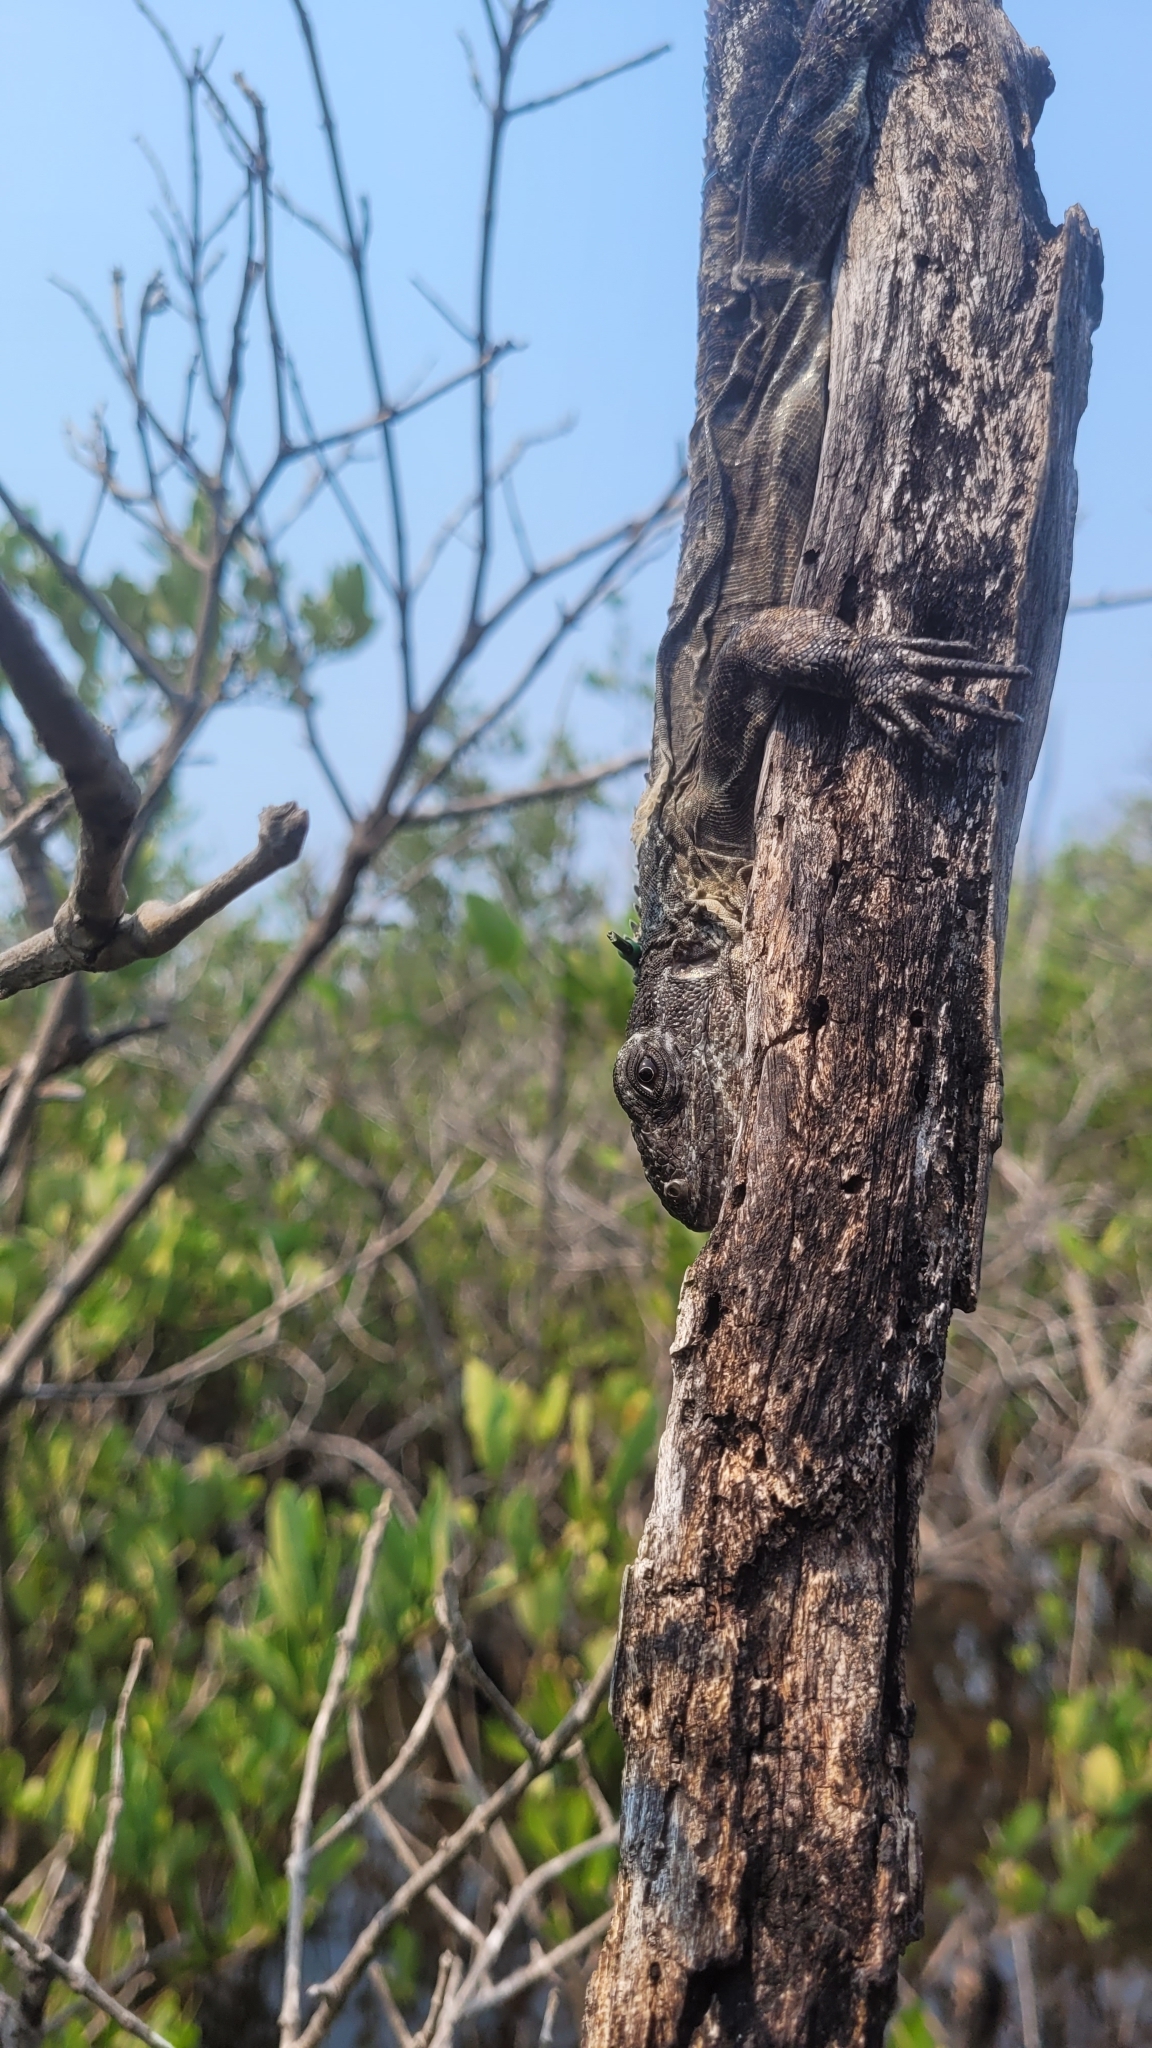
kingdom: Animalia
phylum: Chordata
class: Squamata
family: Iguanidae
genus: Ctenosaura
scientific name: Ctenosaura bakeri
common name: Utila spiny-tailed iguana
